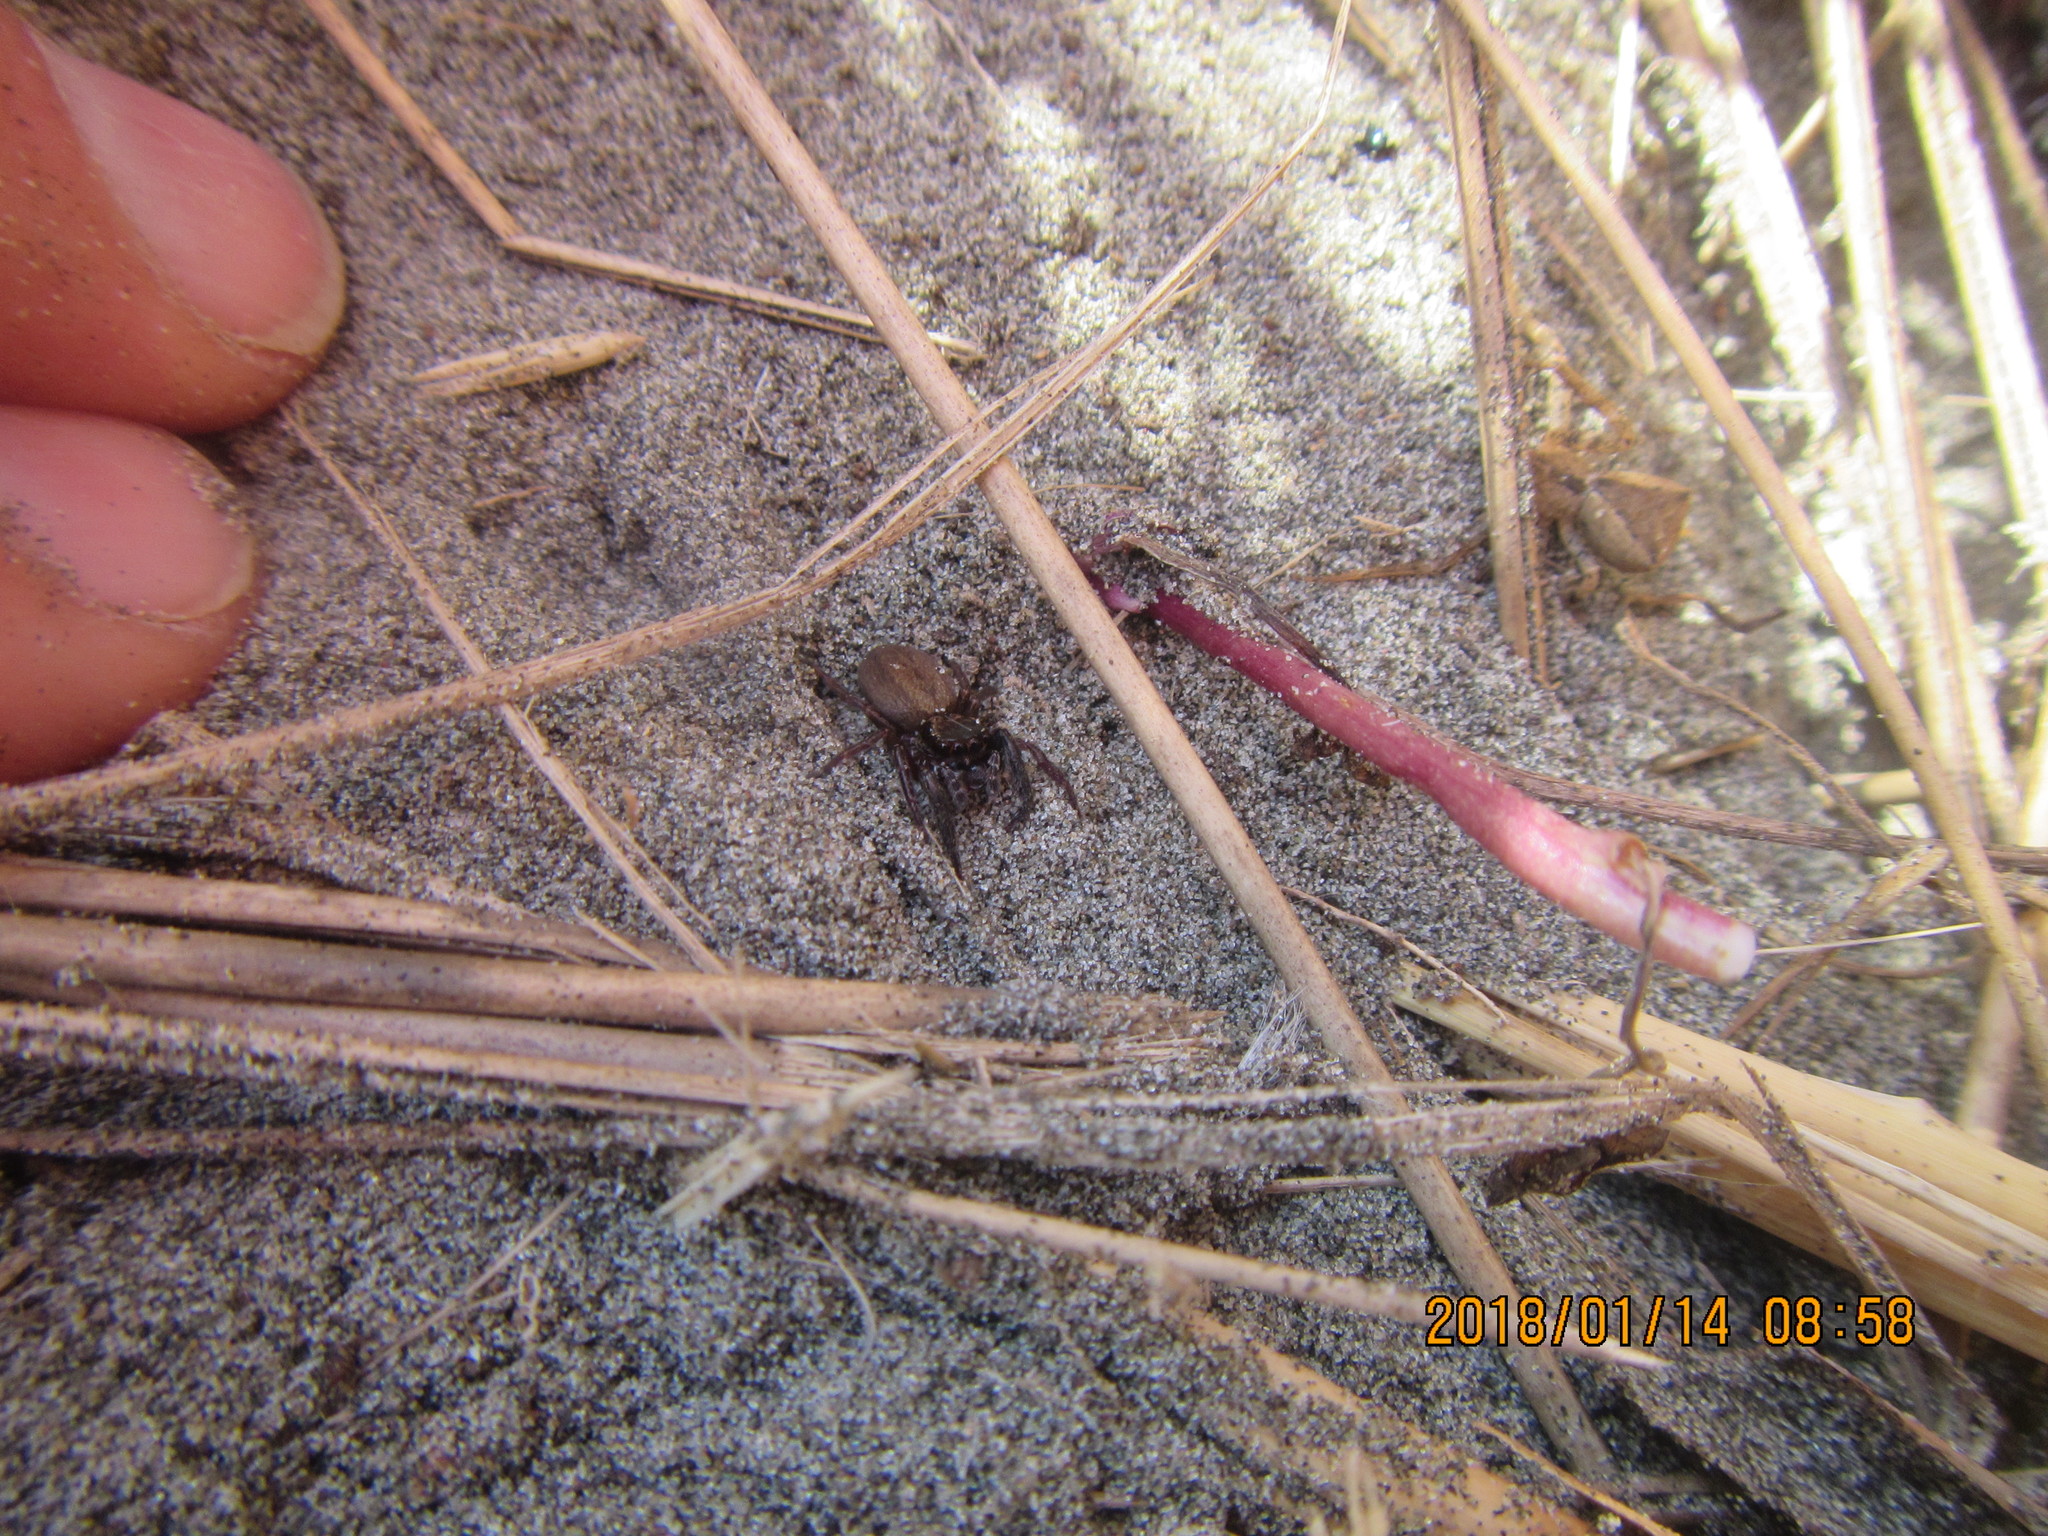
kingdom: Animalia
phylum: Arthropoda
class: Arachnida
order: Araneae
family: Salticidae
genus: Trite
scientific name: Trite auricoma
